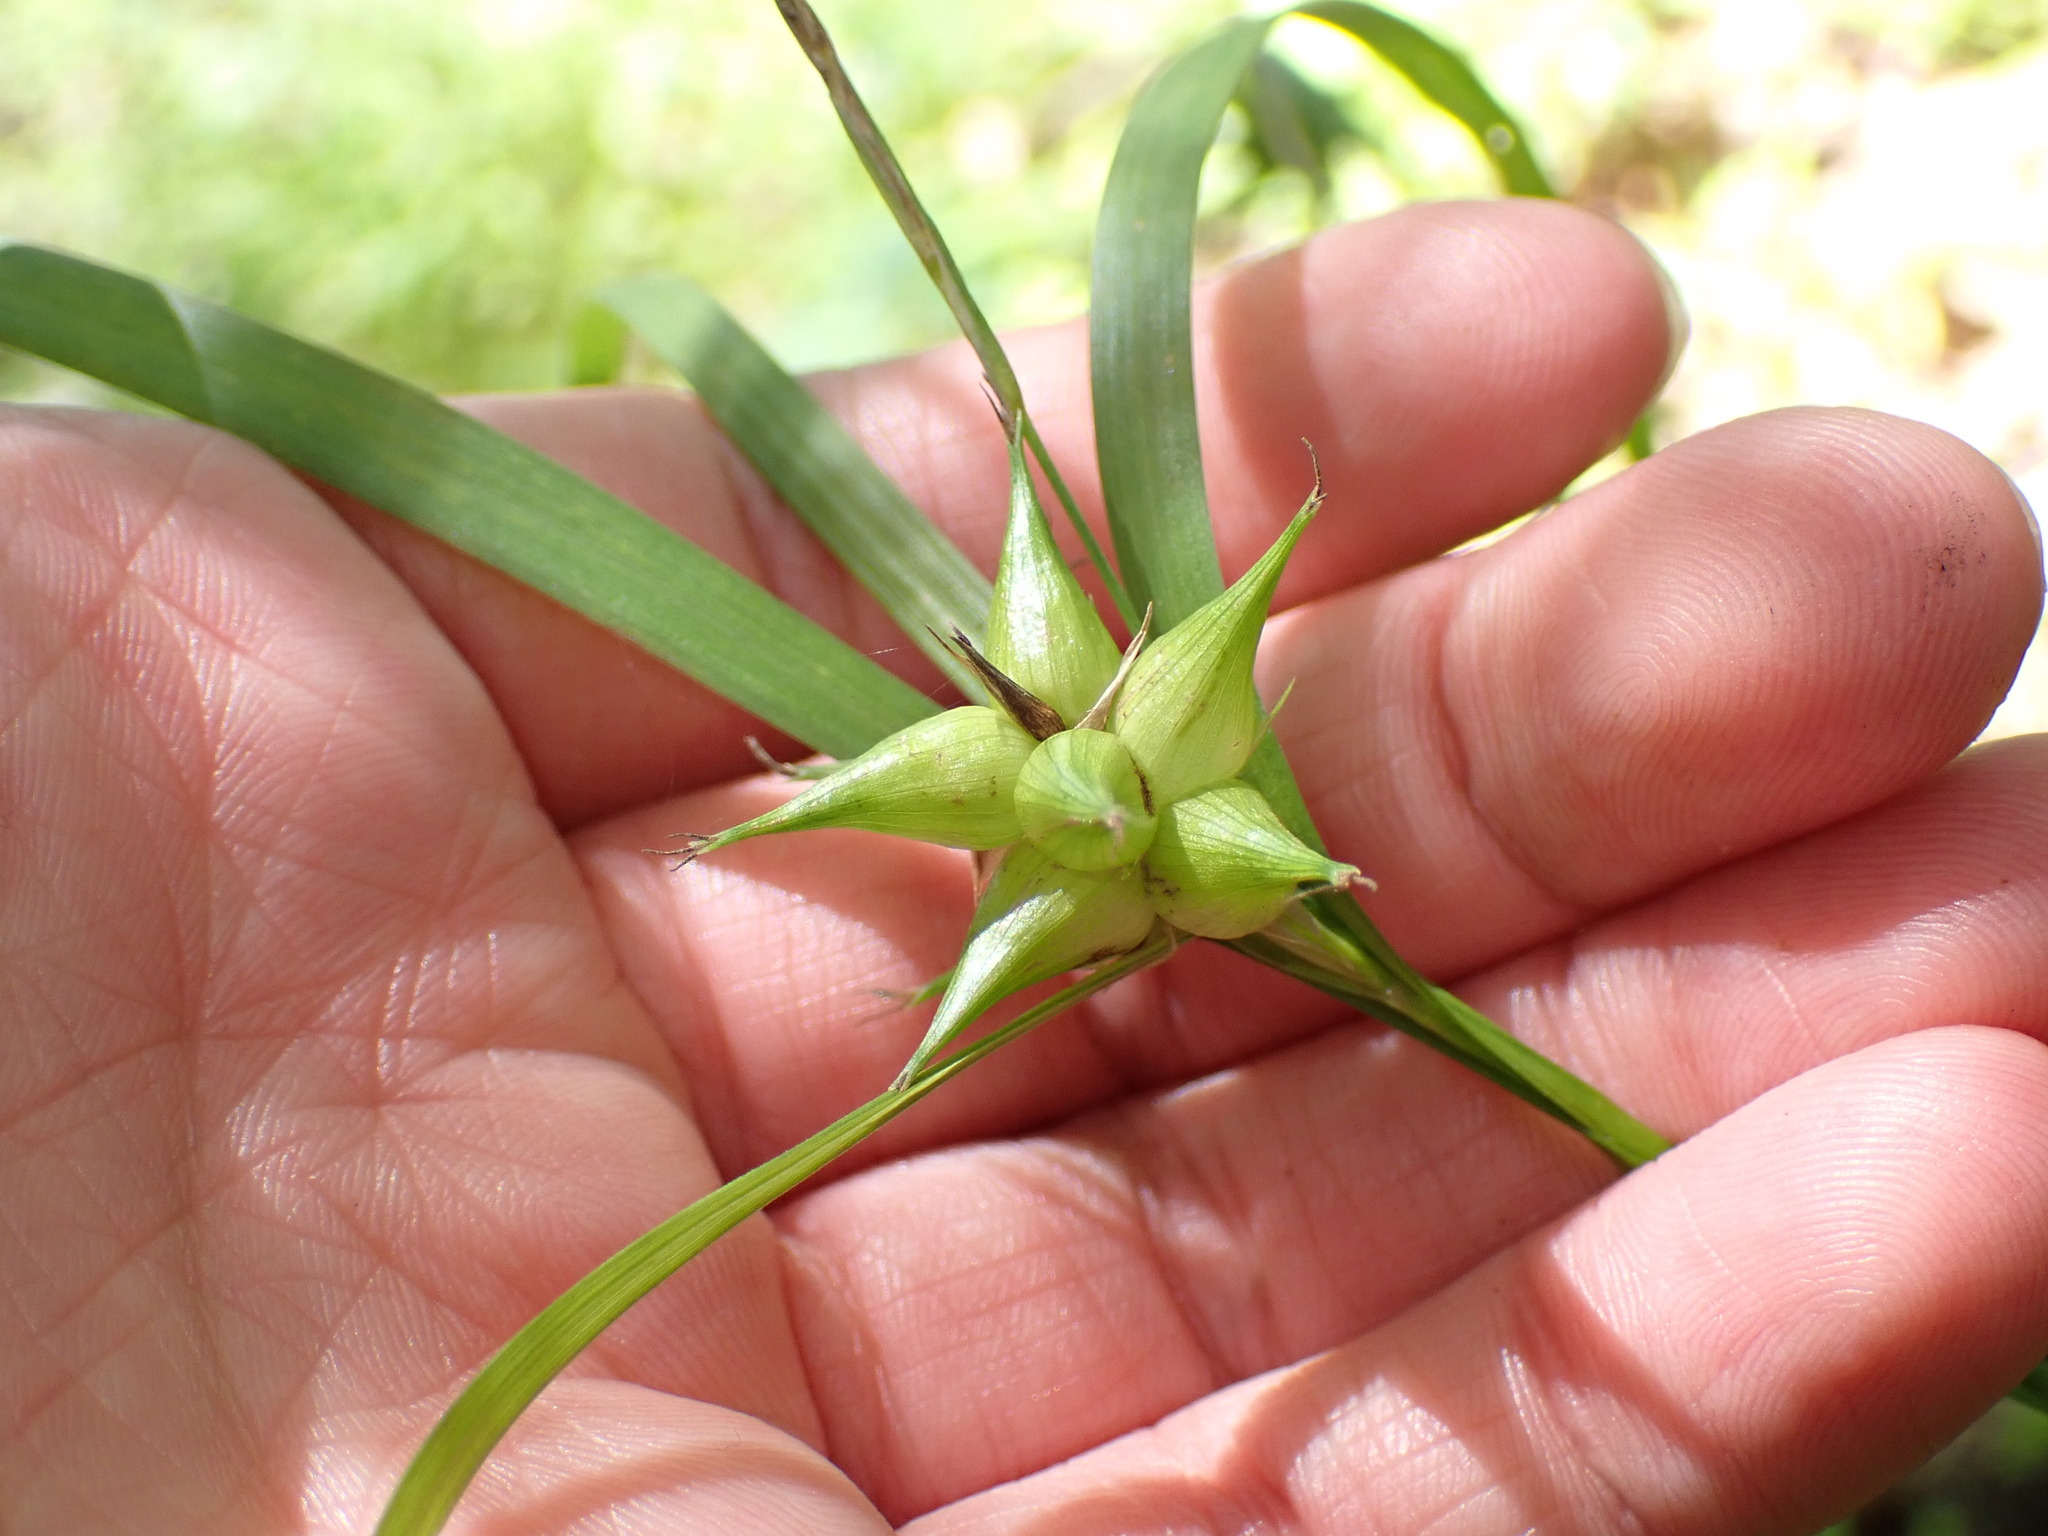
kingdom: Plantae
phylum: Tracheophyta
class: Liliopsida
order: Poales
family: Cyperaceae
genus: Carex
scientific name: Carex intumescens
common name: Greater bladder sedge
